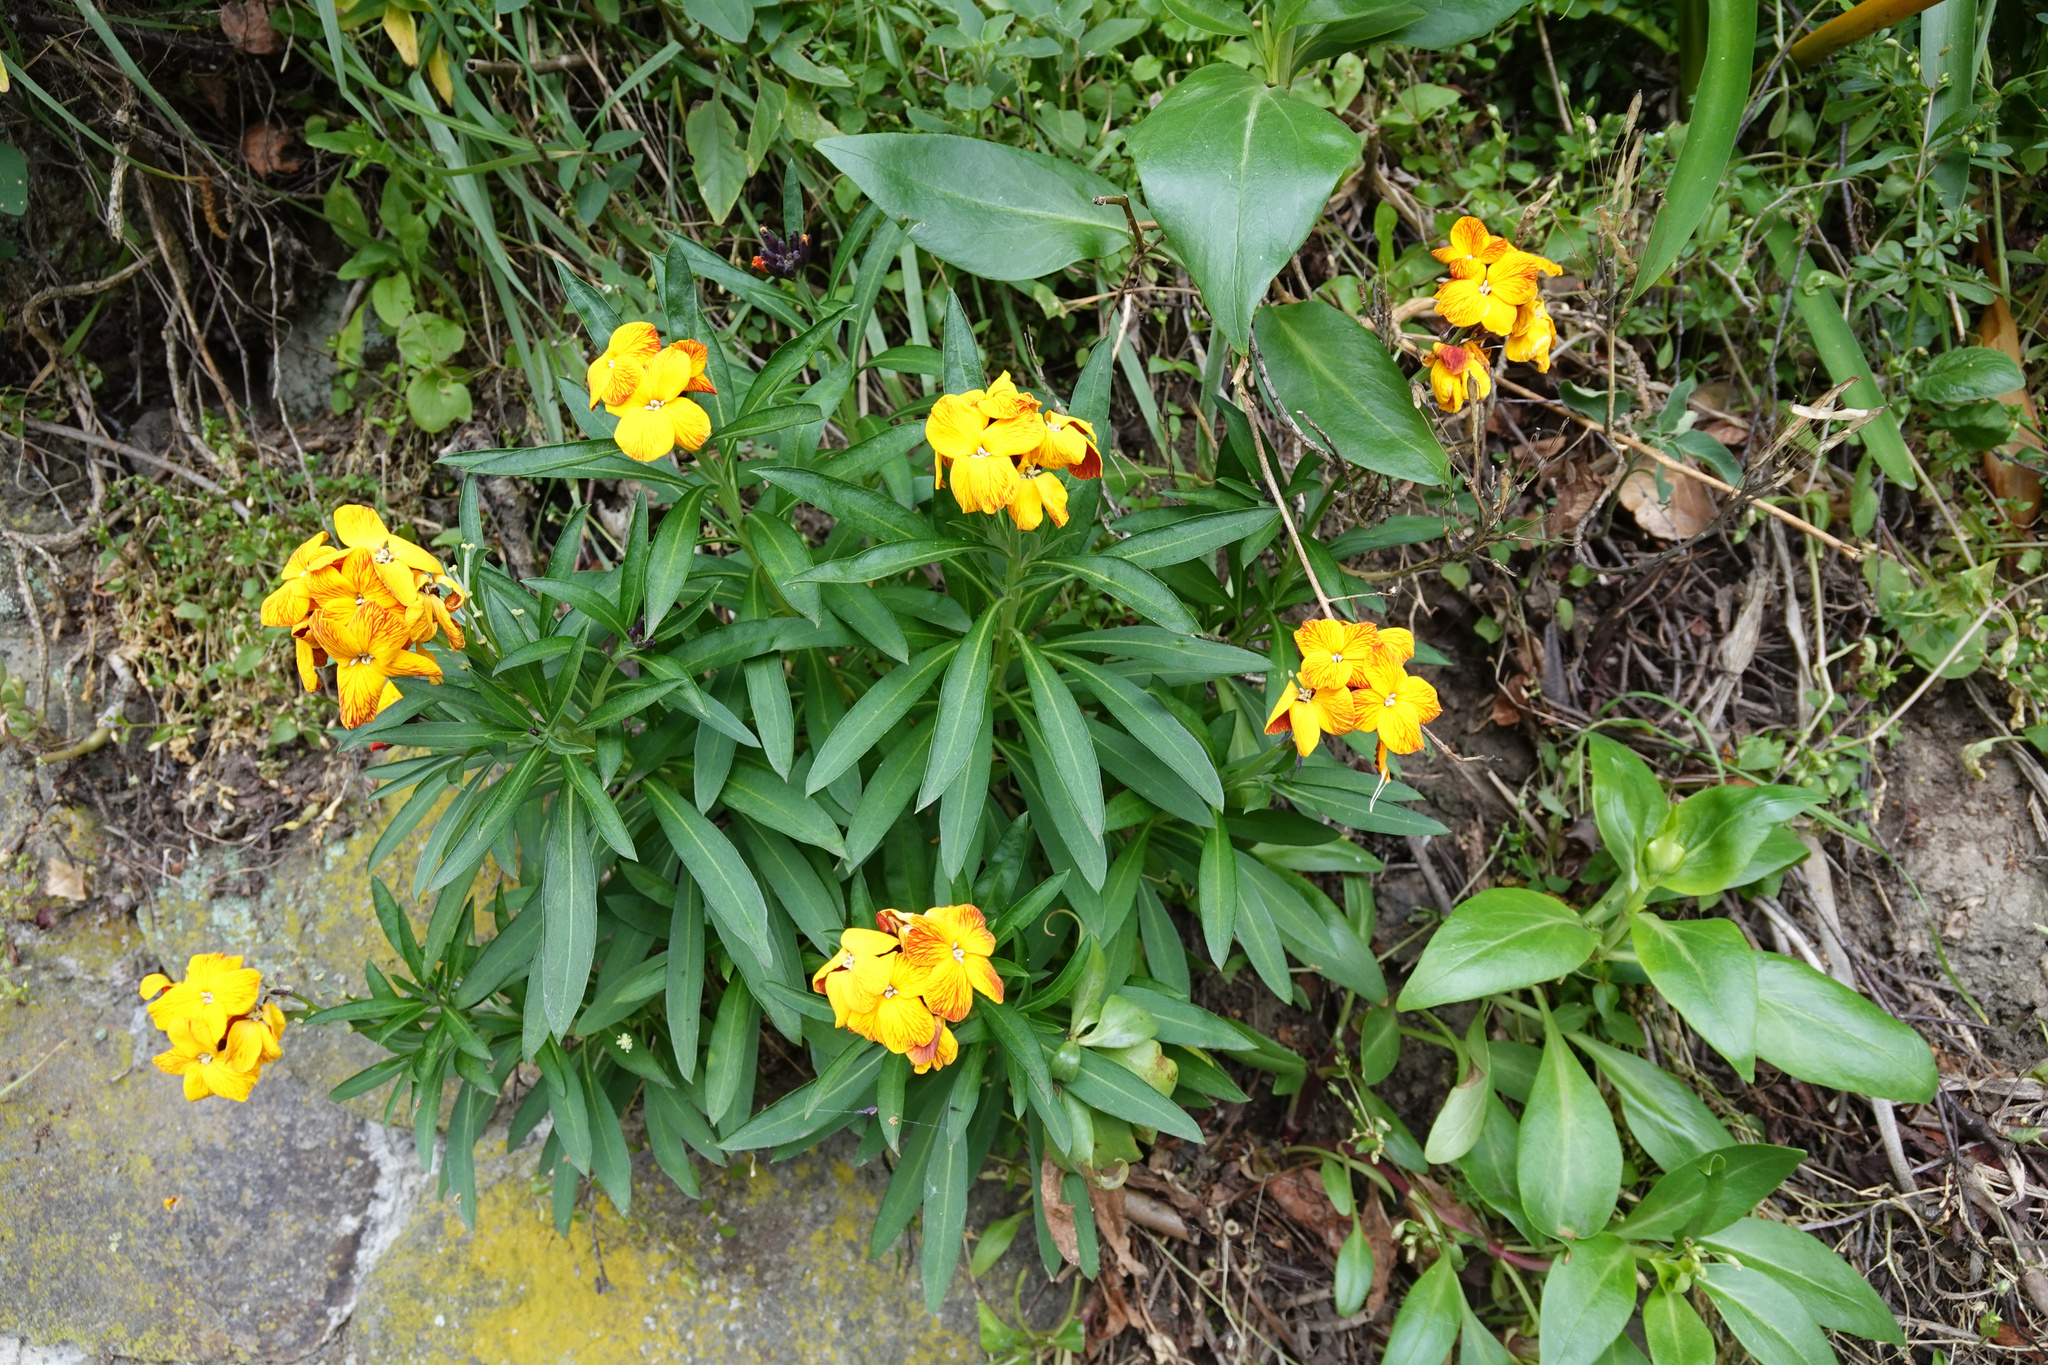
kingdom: Plantae
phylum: Tracheophyta
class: Magnoliopsida
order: Brassicales
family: Brassicaceae
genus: Erysimum
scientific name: Erysimum cheiri
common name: Wallflower
